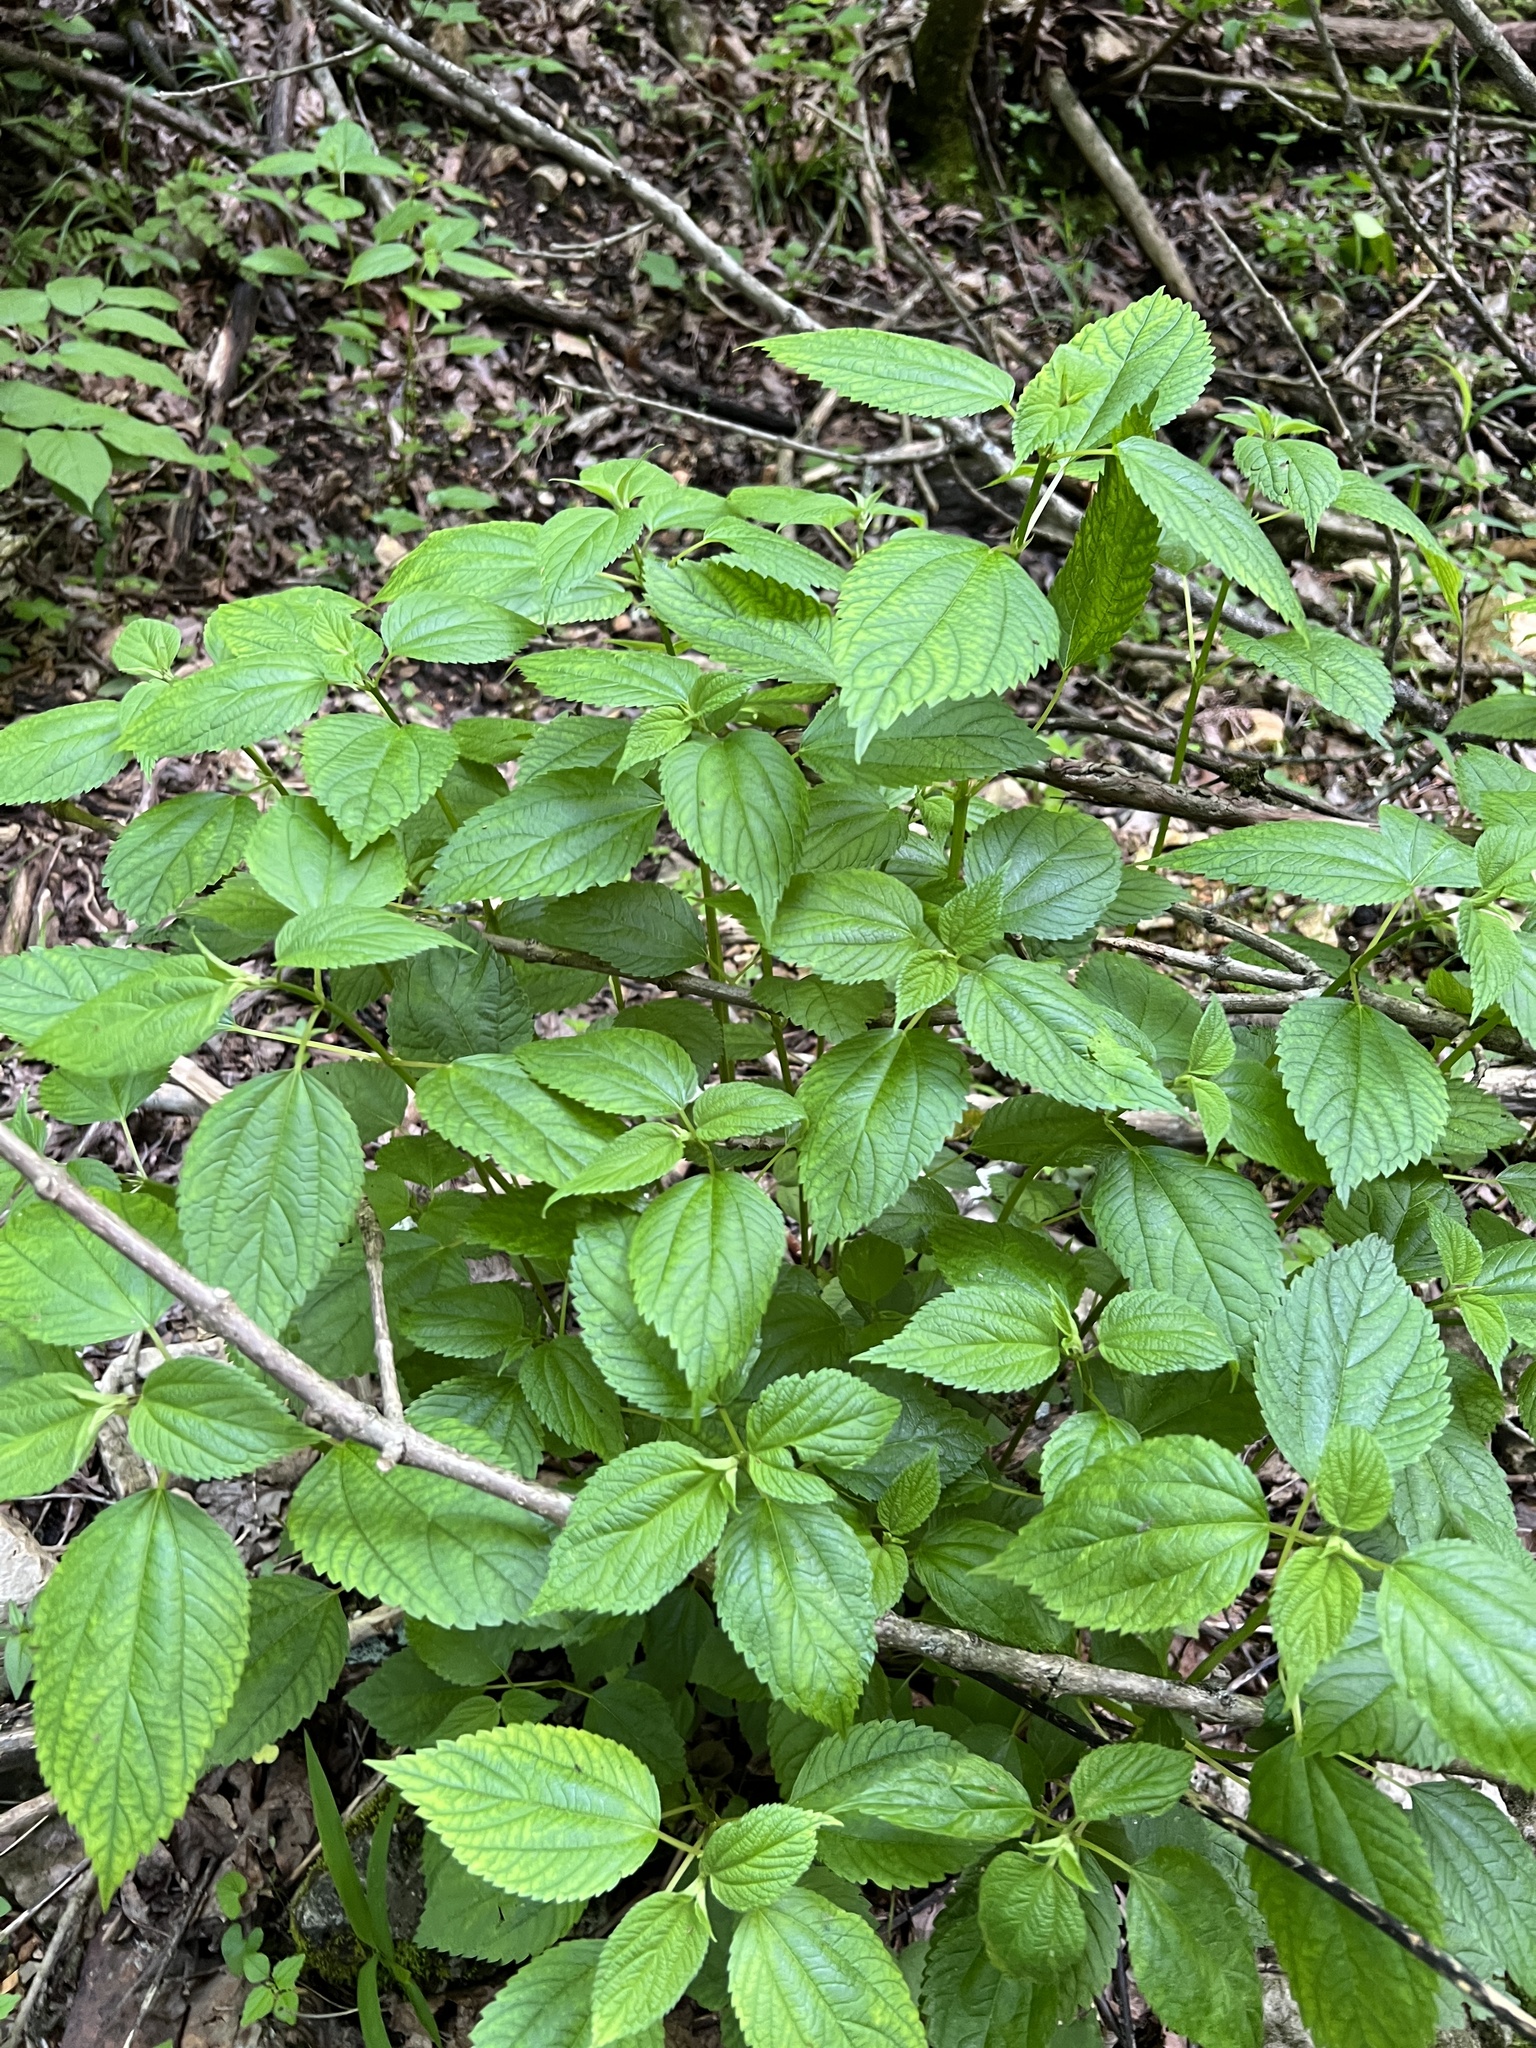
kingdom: Plantae
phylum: Tracheophyta
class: Magnoliopsida
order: Rosales
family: Urticaceae
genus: Boehmeria
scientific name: Boehmeria cylindrica
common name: Bog-hemp
